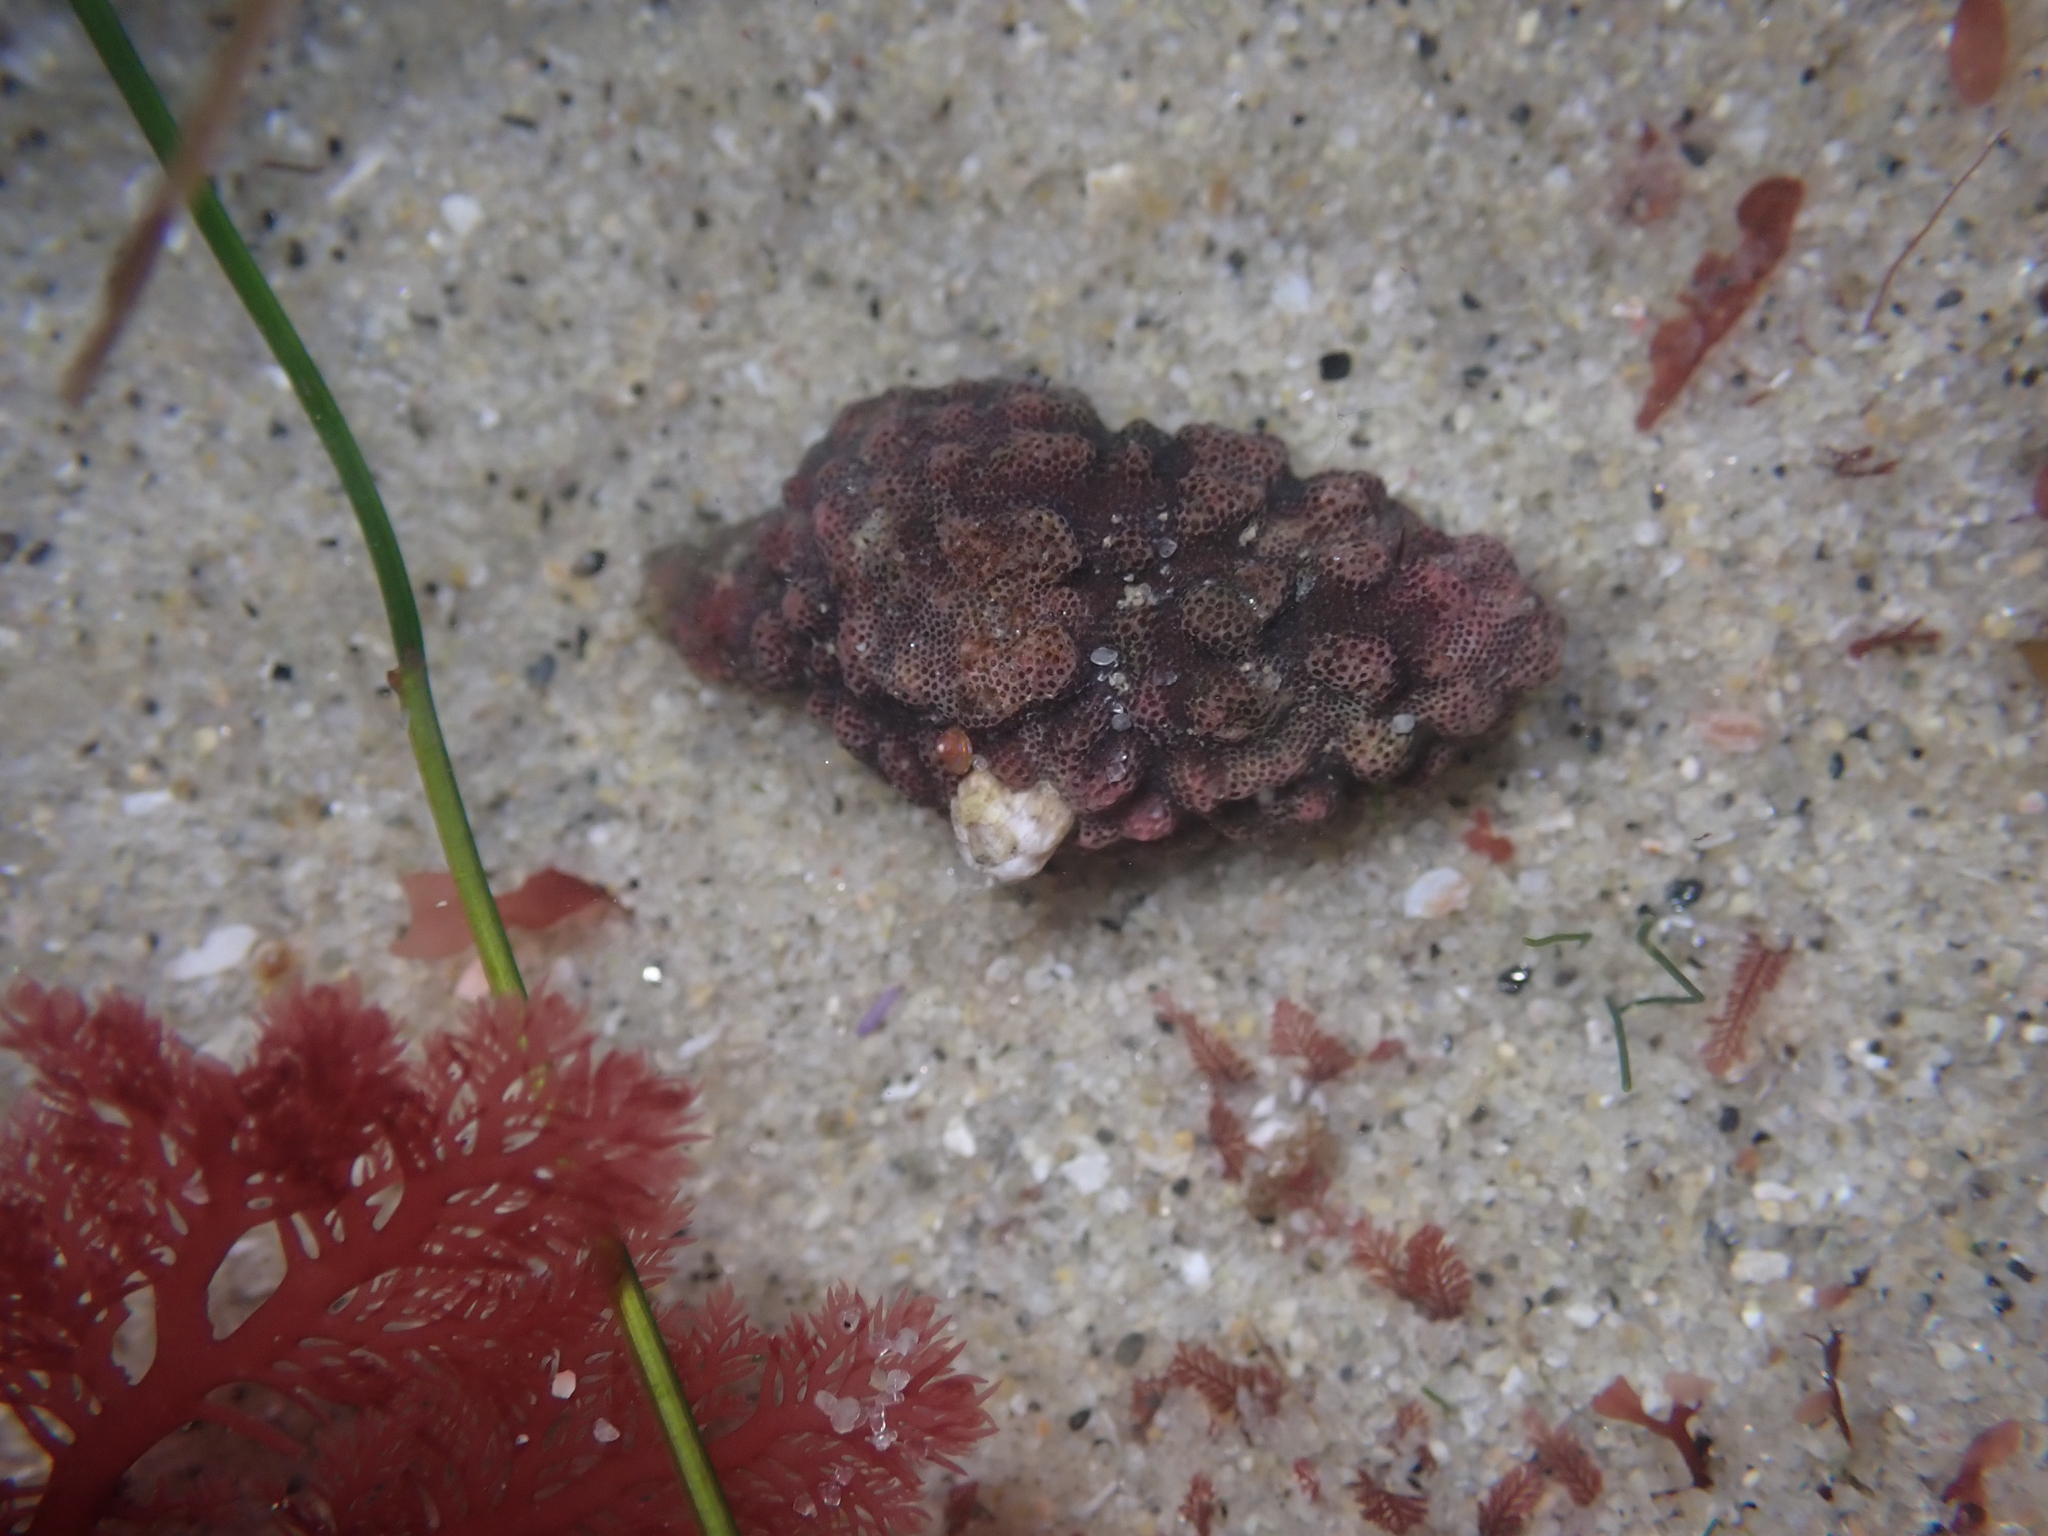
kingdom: Animalia
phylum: Mollusca
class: Gastropoda
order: Neogastropoda
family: Muricidae
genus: Roperia
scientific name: Roperia poulsoni
